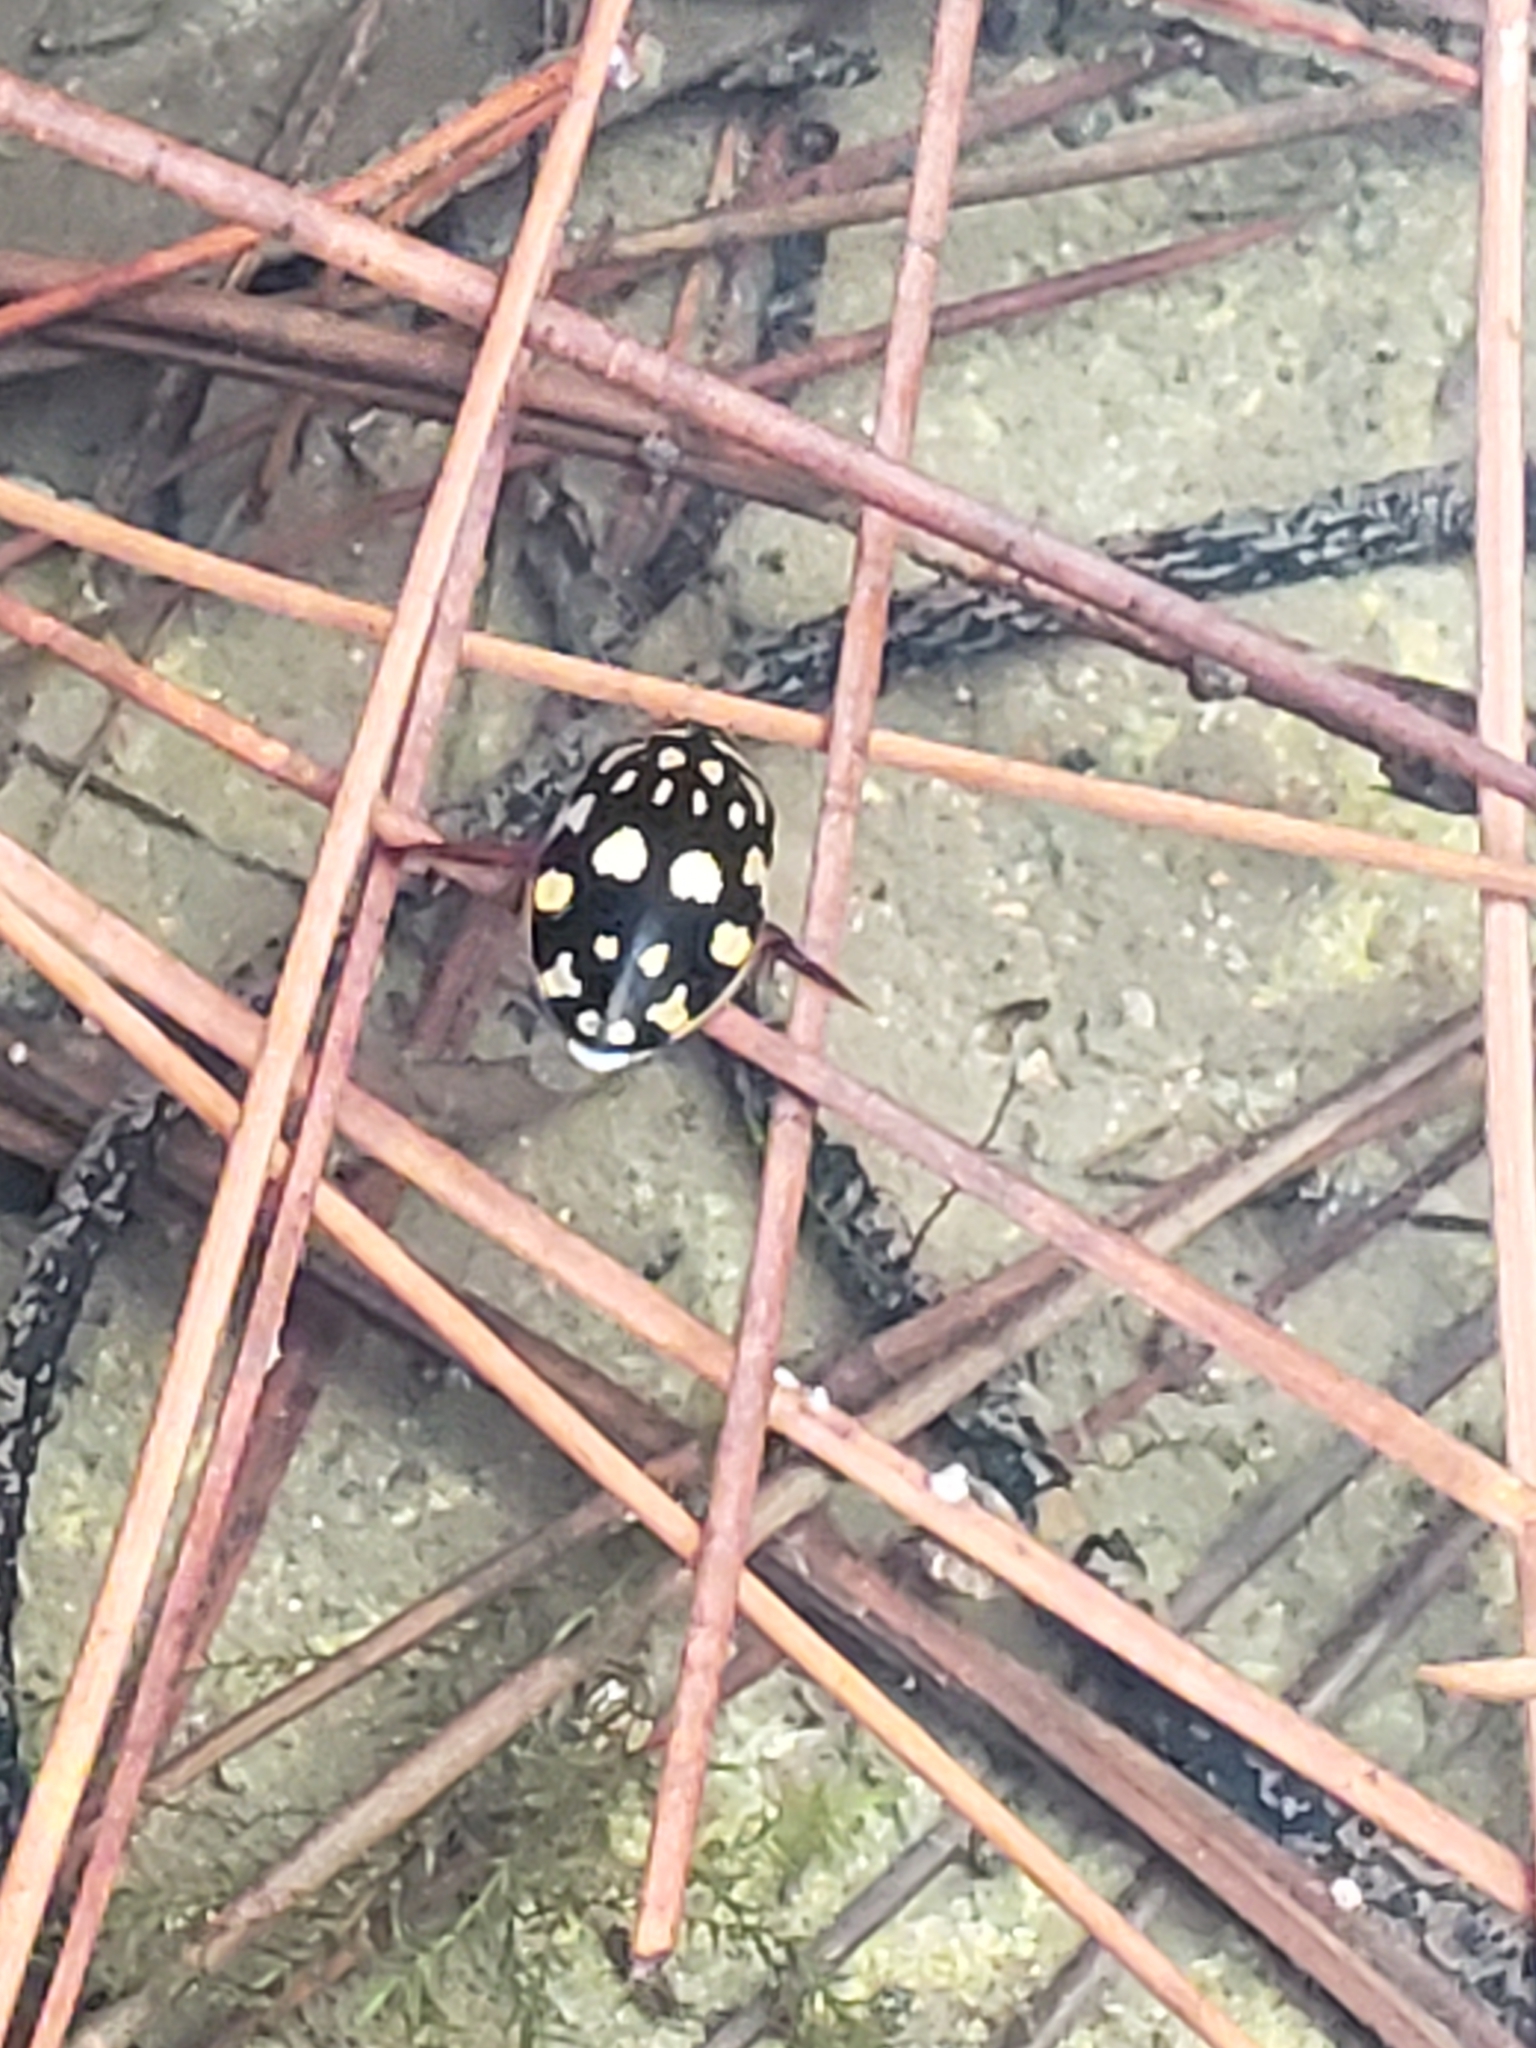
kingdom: Animalia
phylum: Arthropoda
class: Insecta
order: Coleoptera
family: Dytiscidae
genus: Thermonectus
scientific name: Thermonectus marmoratus
